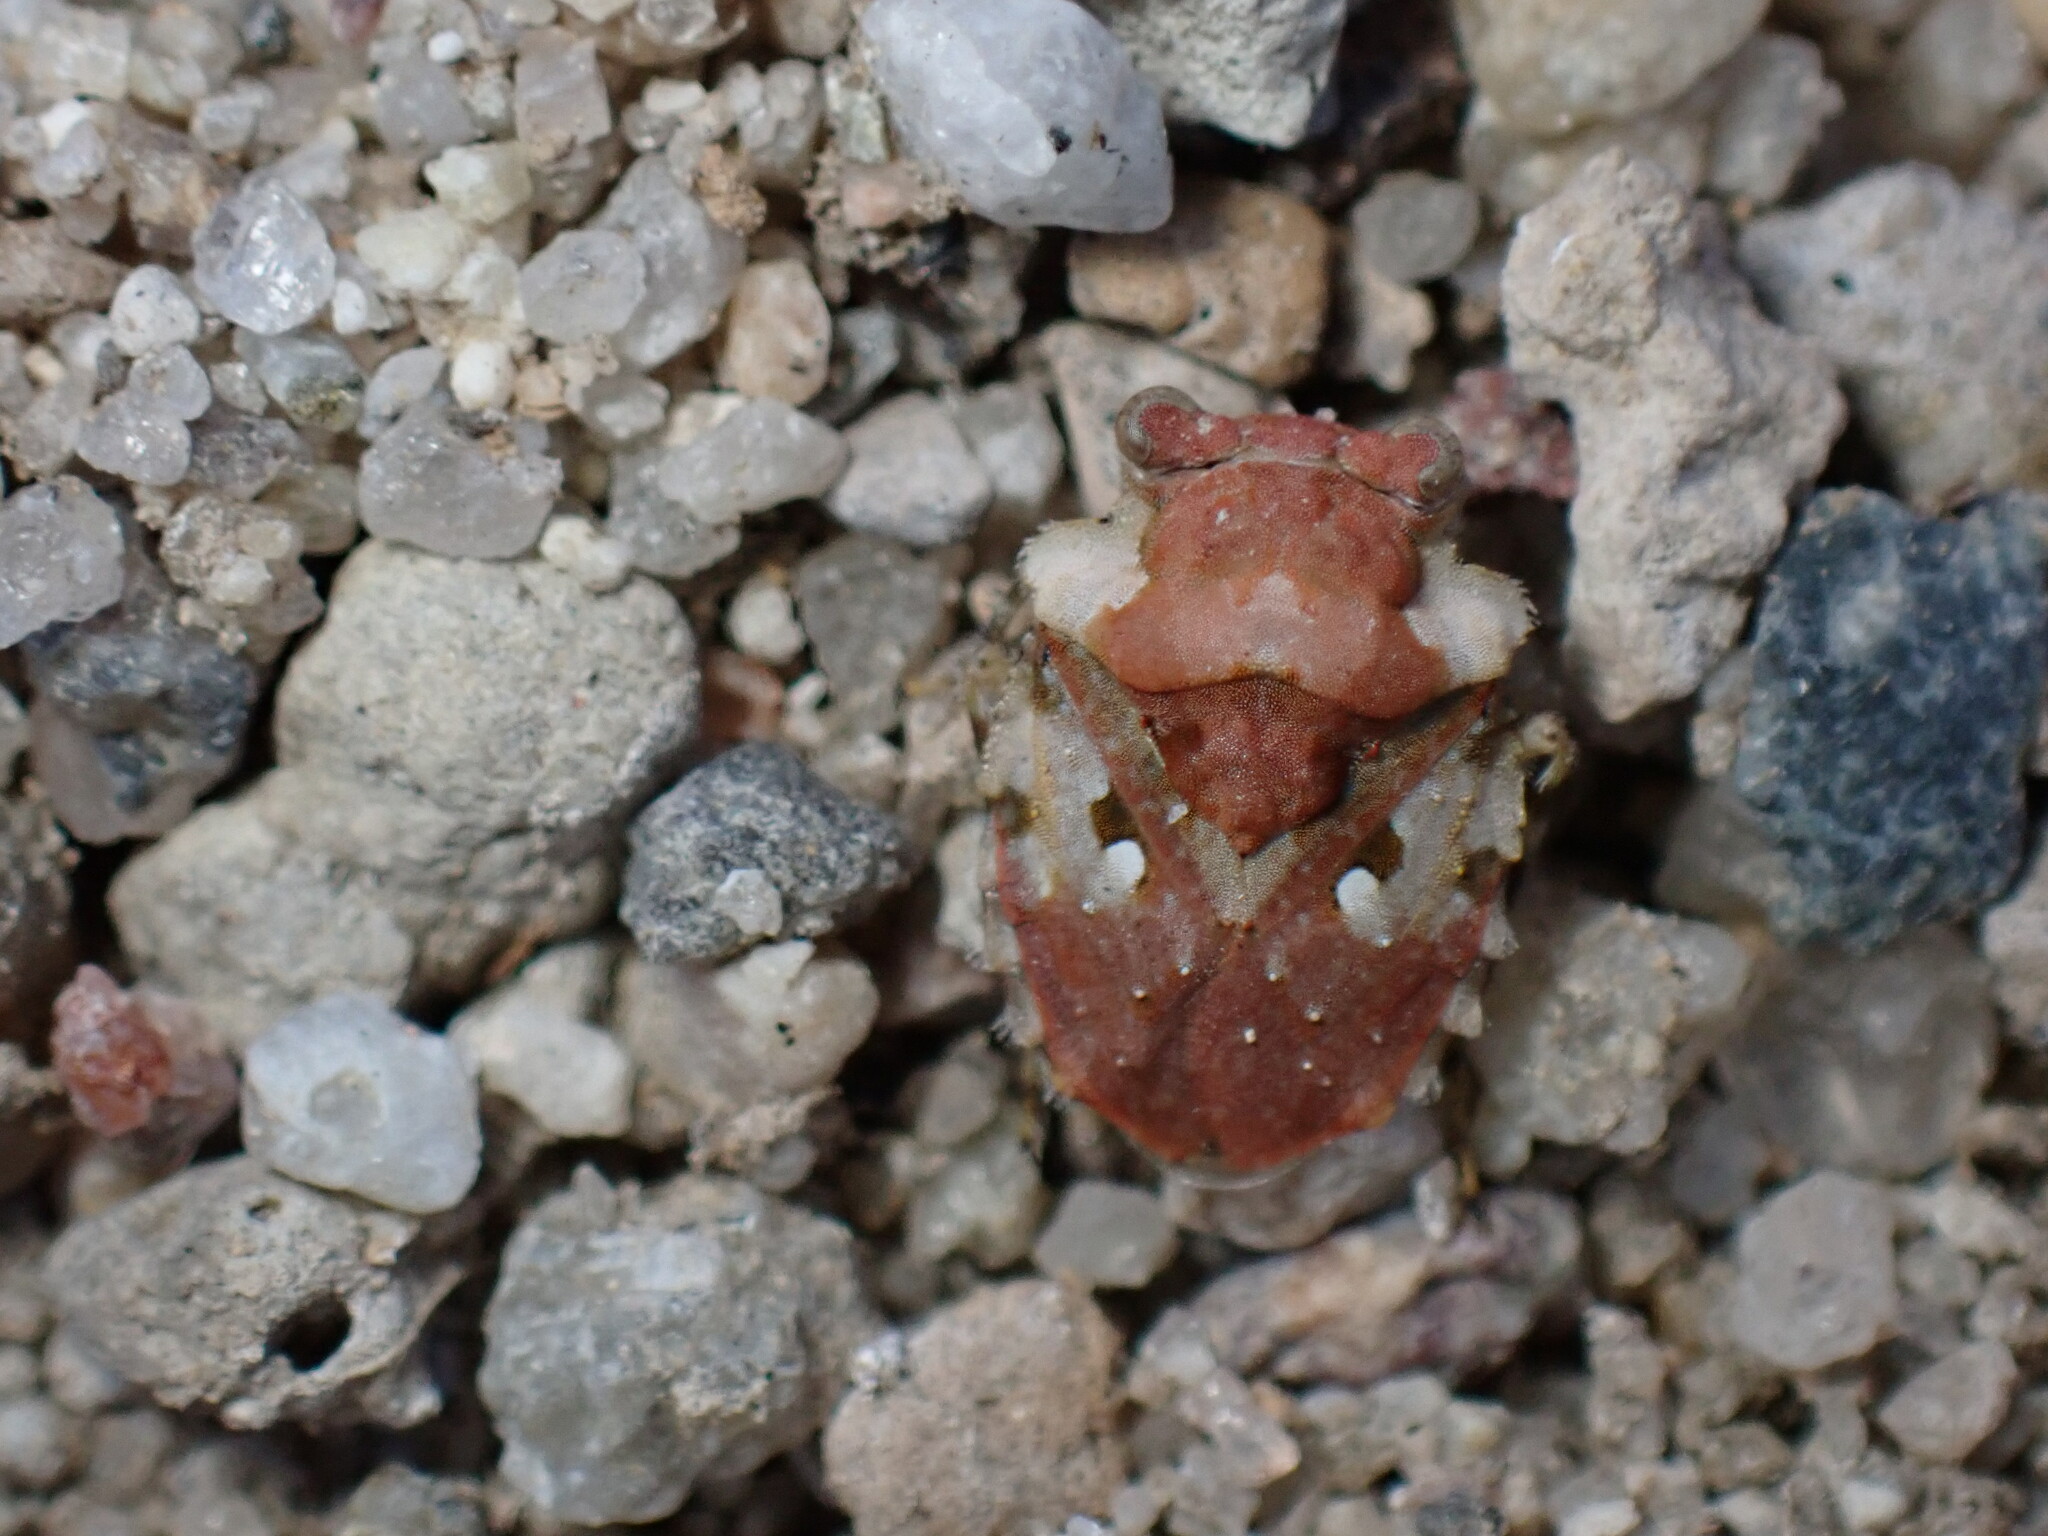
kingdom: Animalia
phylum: Arthropoda
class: Insecta
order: Hemiptera
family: Gelastocoridae
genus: Gelastocoris
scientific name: Gelastocoris oculatus
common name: Toad bug
